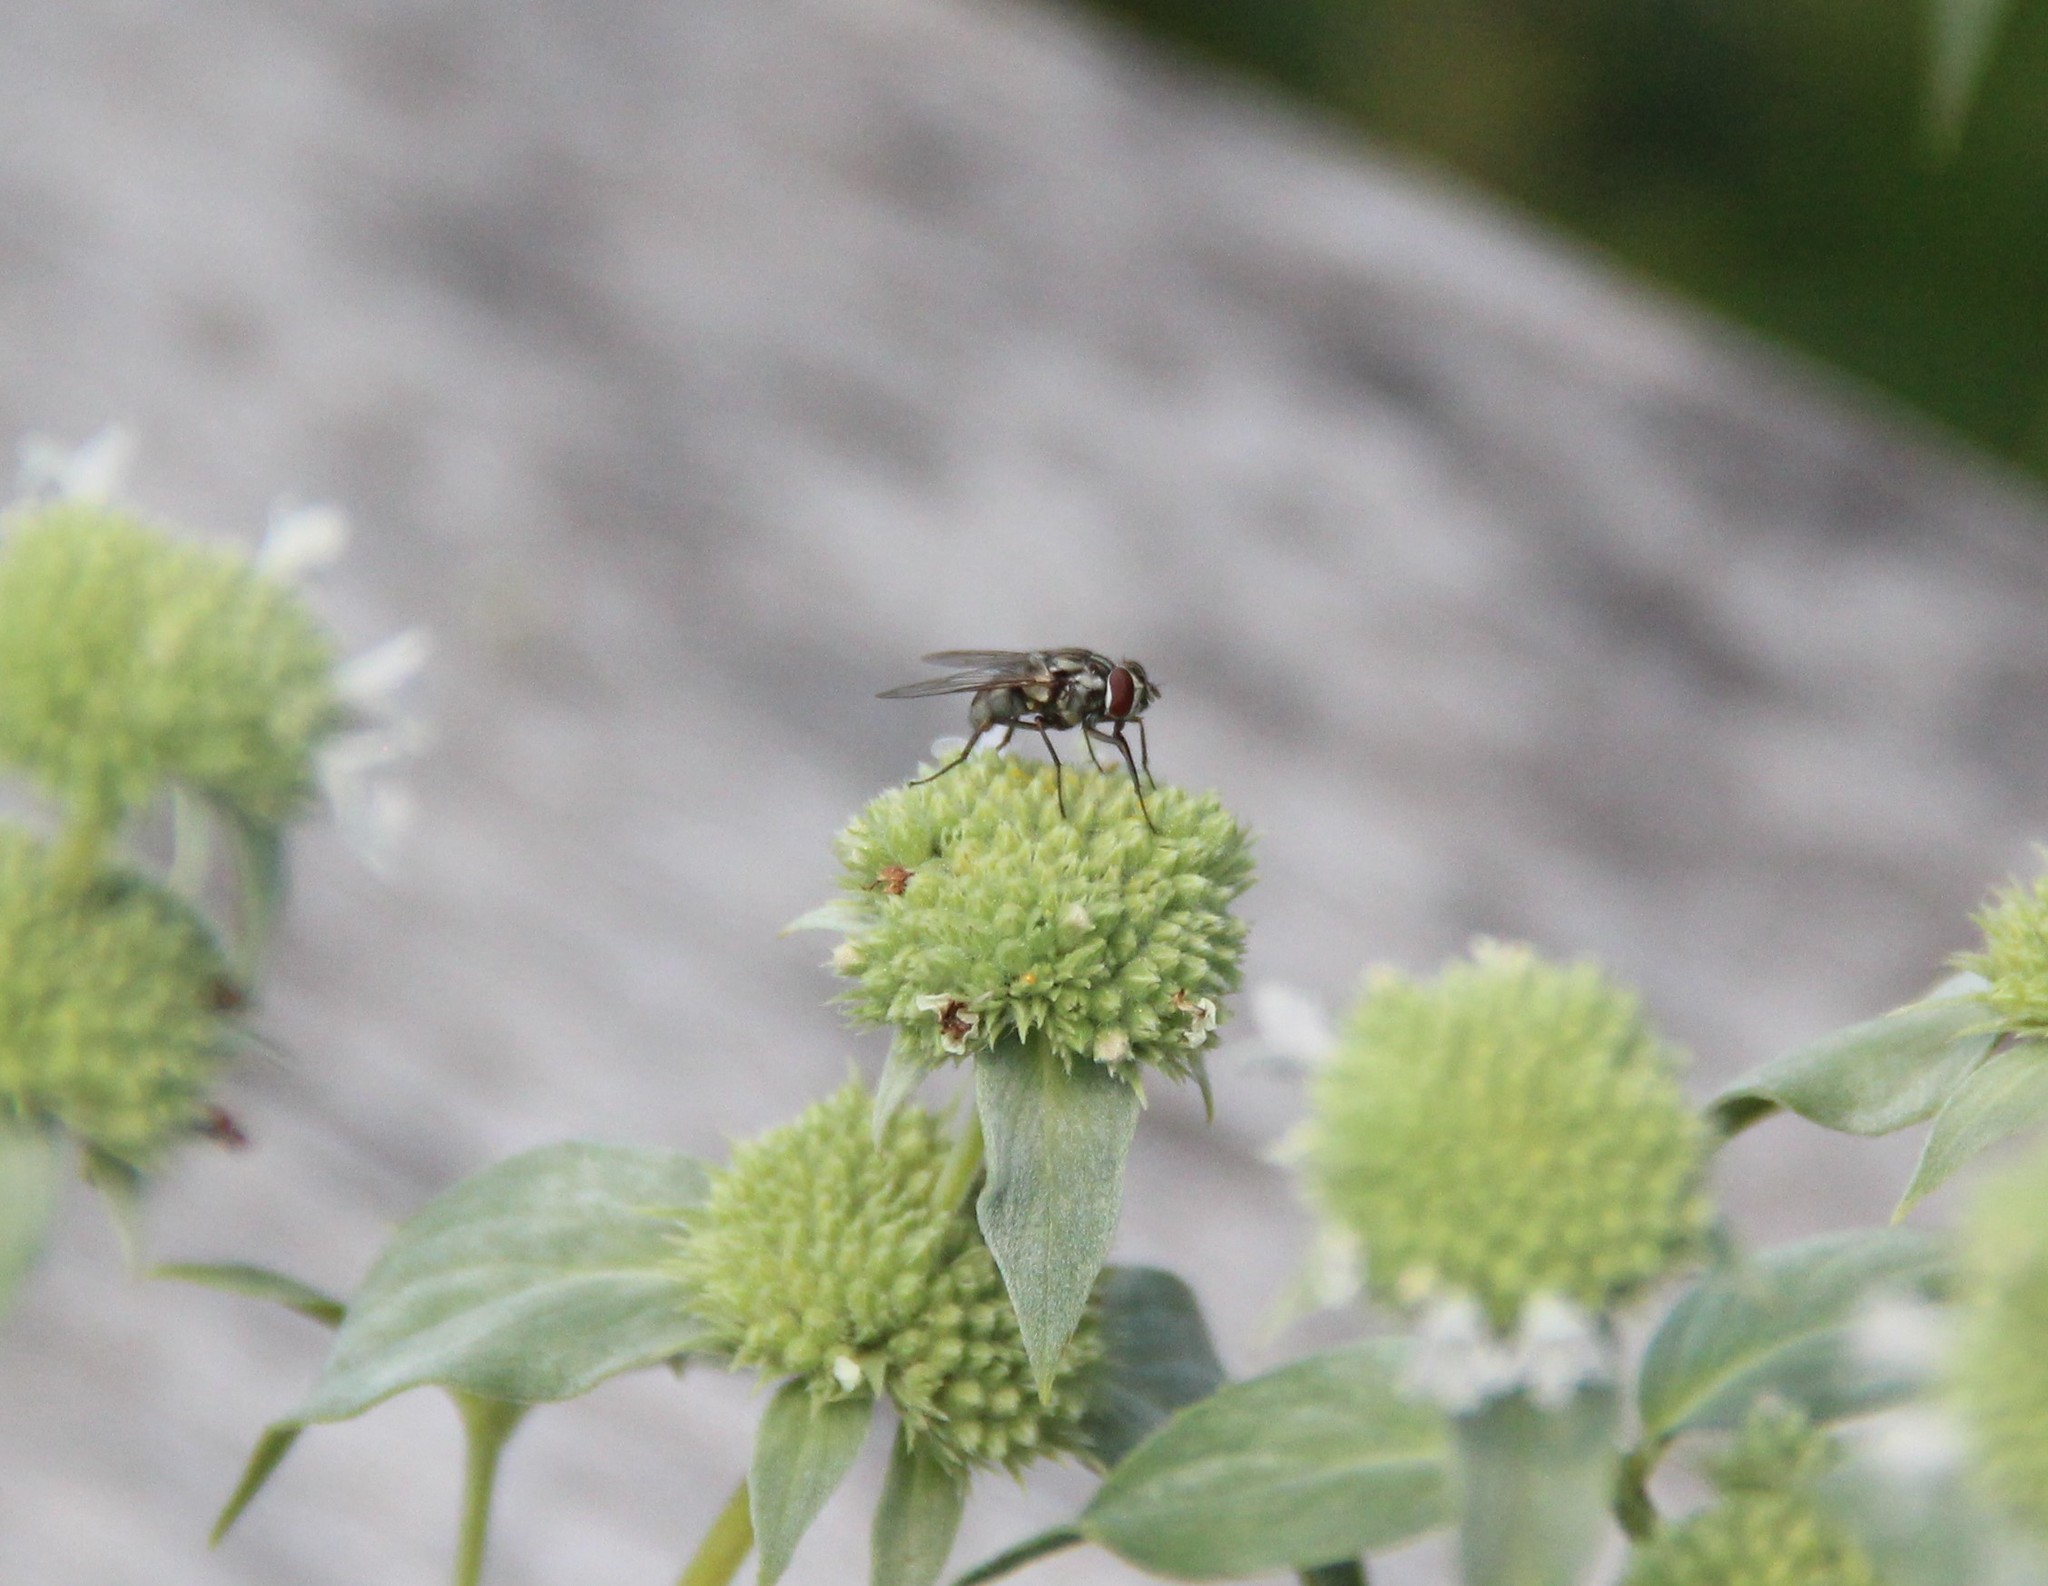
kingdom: Animalia
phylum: Arthropoda
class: Insecta
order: Diptera
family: Muscidae
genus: Stomoxys
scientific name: Stomoxys calcitrans
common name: Stable fly
